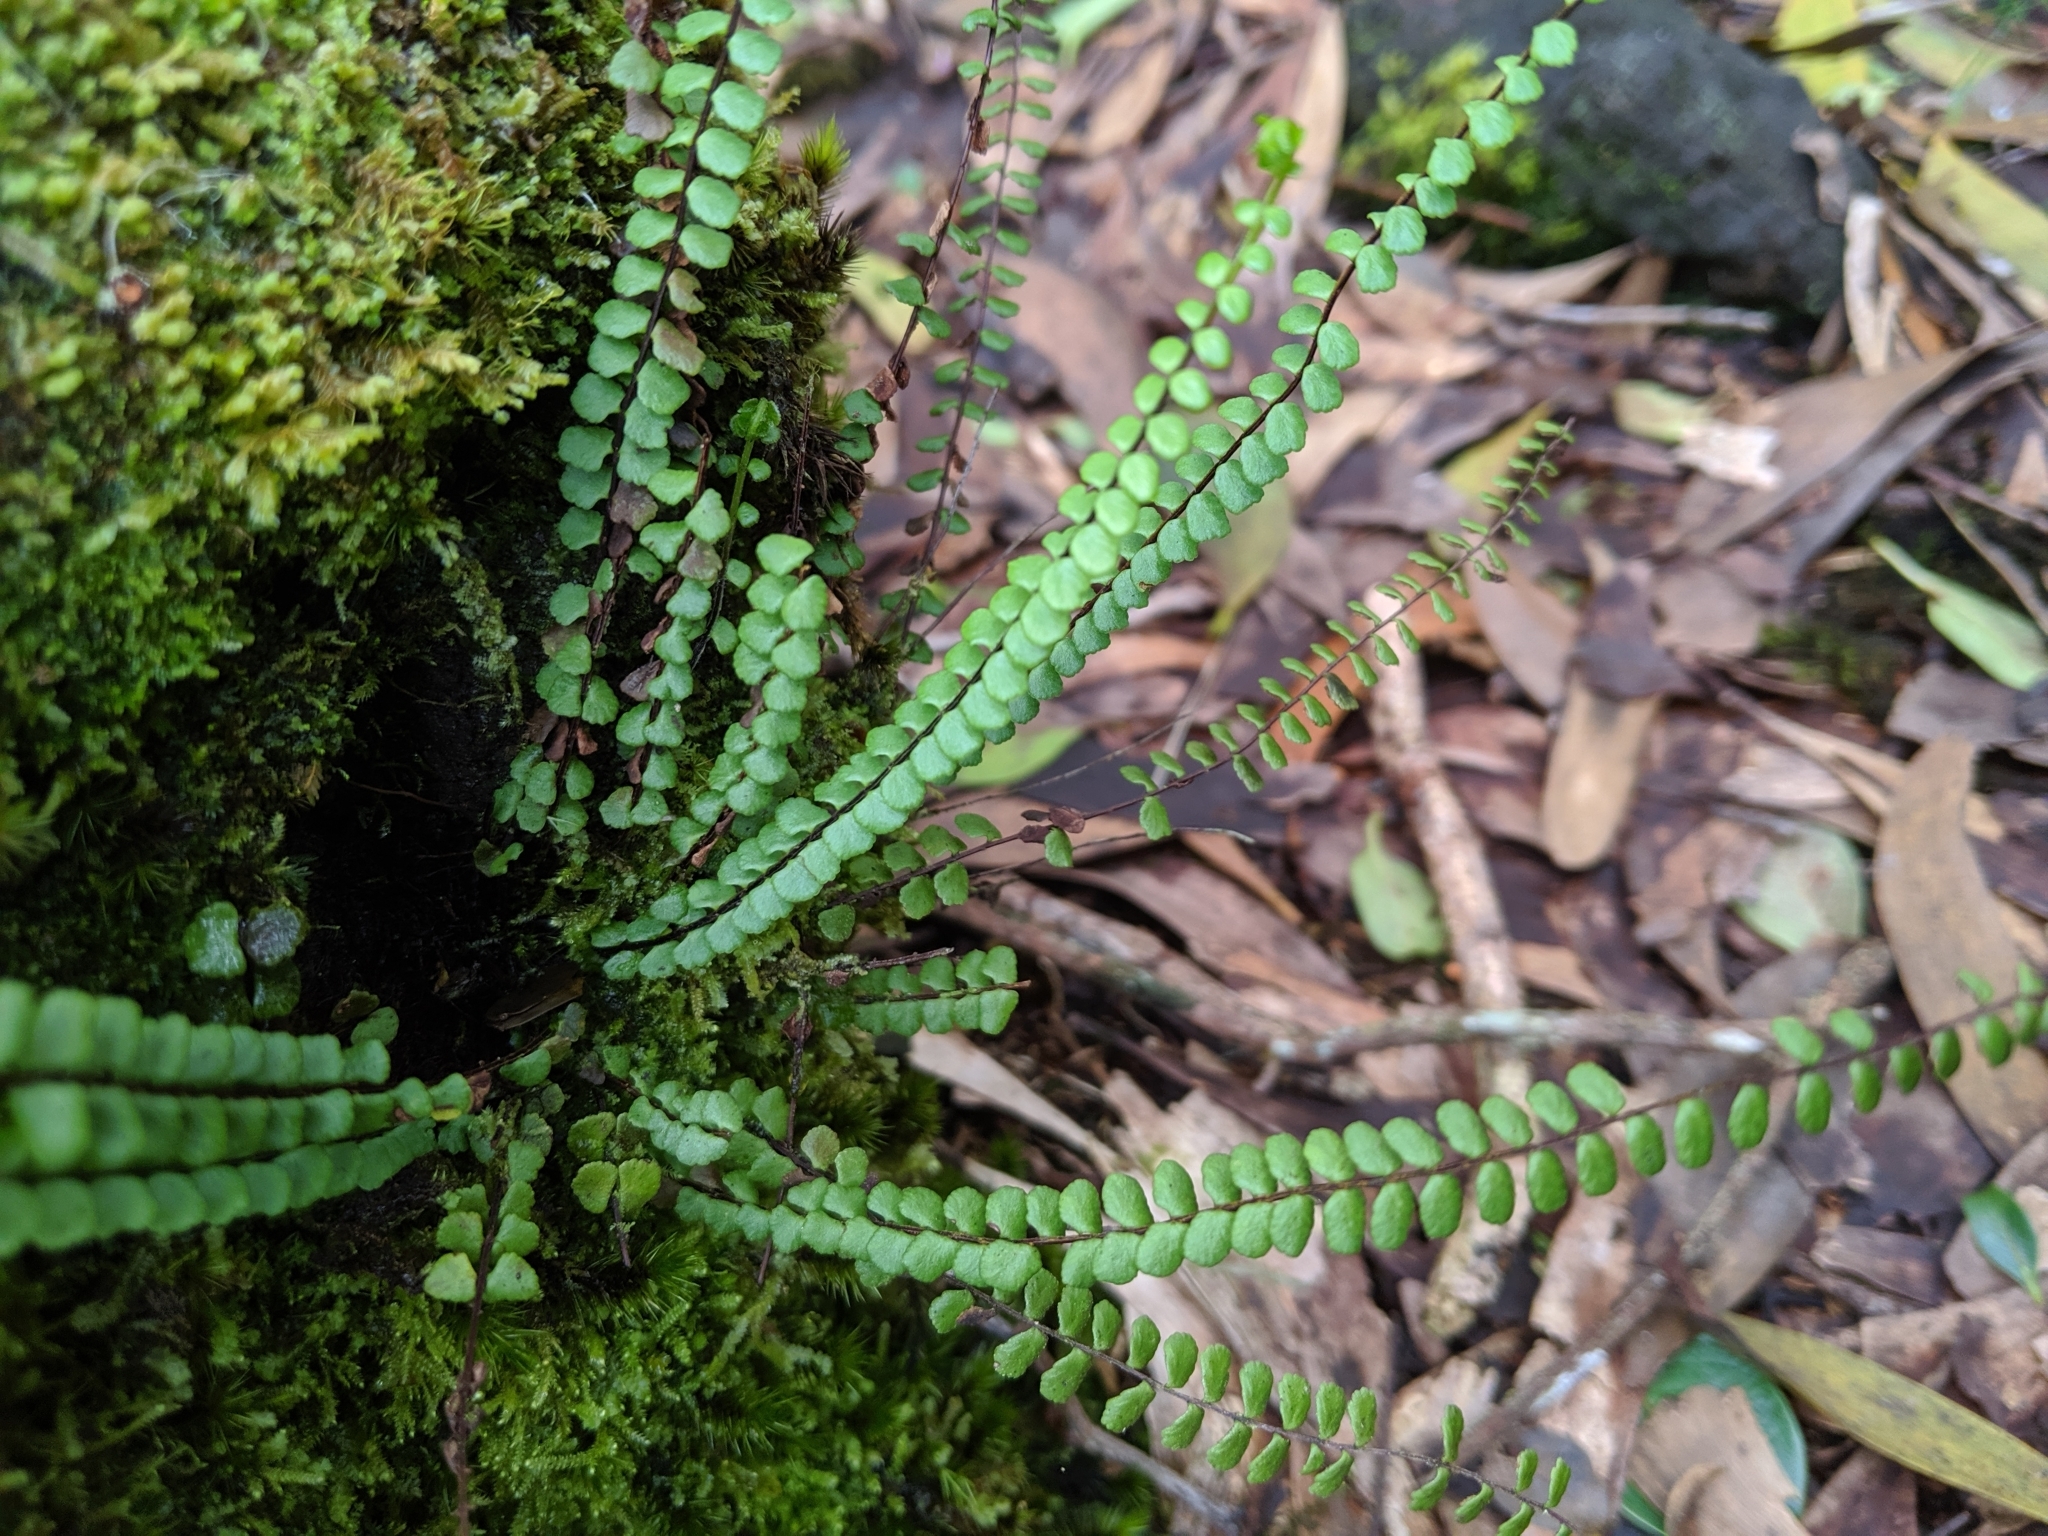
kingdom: Plantae
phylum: Tracheophyta
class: Polypodiopsida
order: Polypodiales
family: Aspleniaceae
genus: Asplenium
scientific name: Asplenium trichomanes
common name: Maidenhair spleenwort
